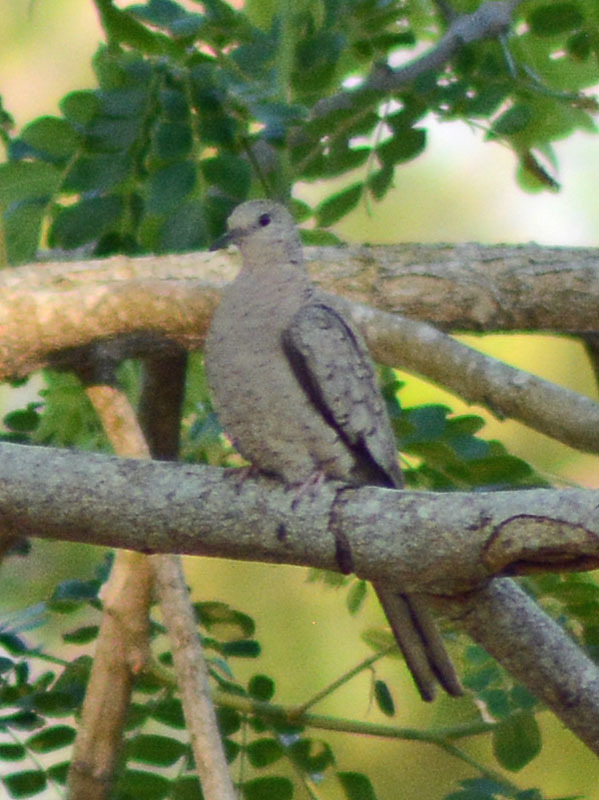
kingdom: Animalia
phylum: Chordata
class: Aves
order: Columbiformes
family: Columbidae
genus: Columbina
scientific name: Columbina inca
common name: Inca dove
